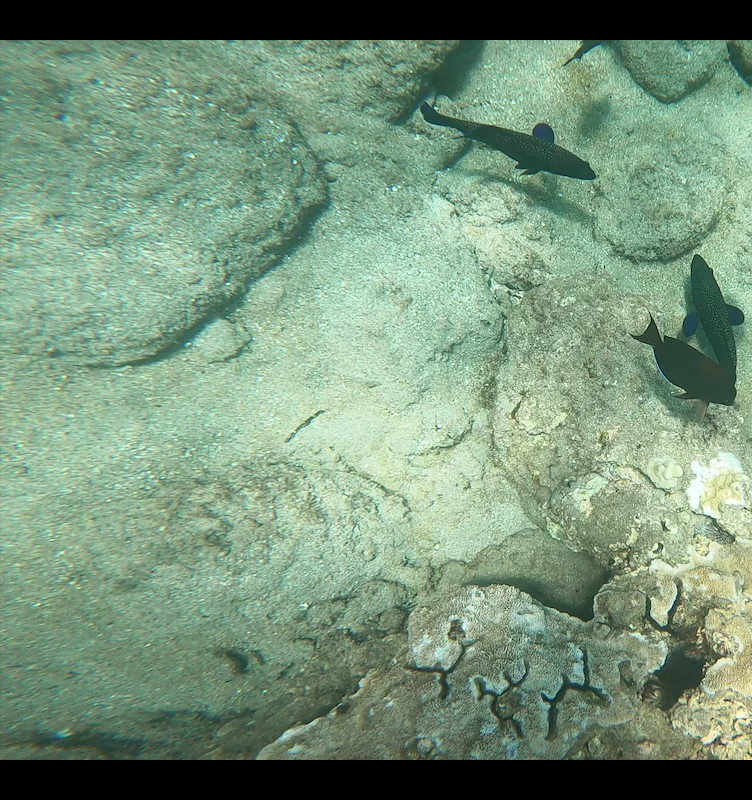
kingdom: Animalia
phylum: Chordata
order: Perciformes
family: Serranidae
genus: Cephalopholis
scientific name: Cephalopholis argus
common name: Peacock grouper
